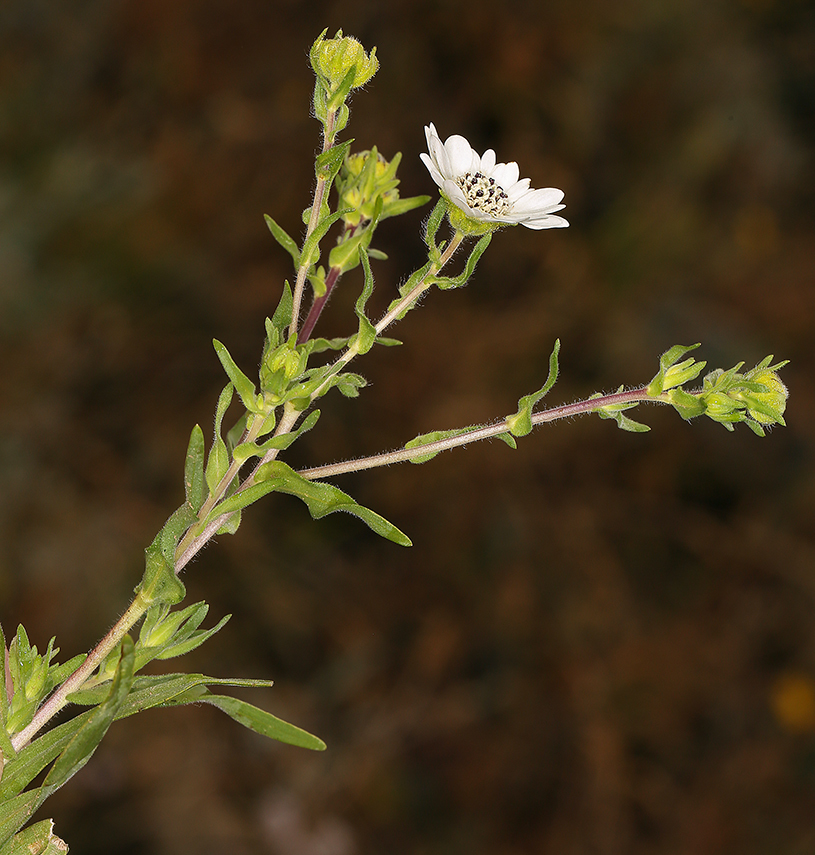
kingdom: Plantae
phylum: Tracheophyta
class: Magnoliopsida
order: Asterales
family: Asteraceae
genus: Hemizonia
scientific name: Hemizonia congesta
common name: Hayfield tarweed
